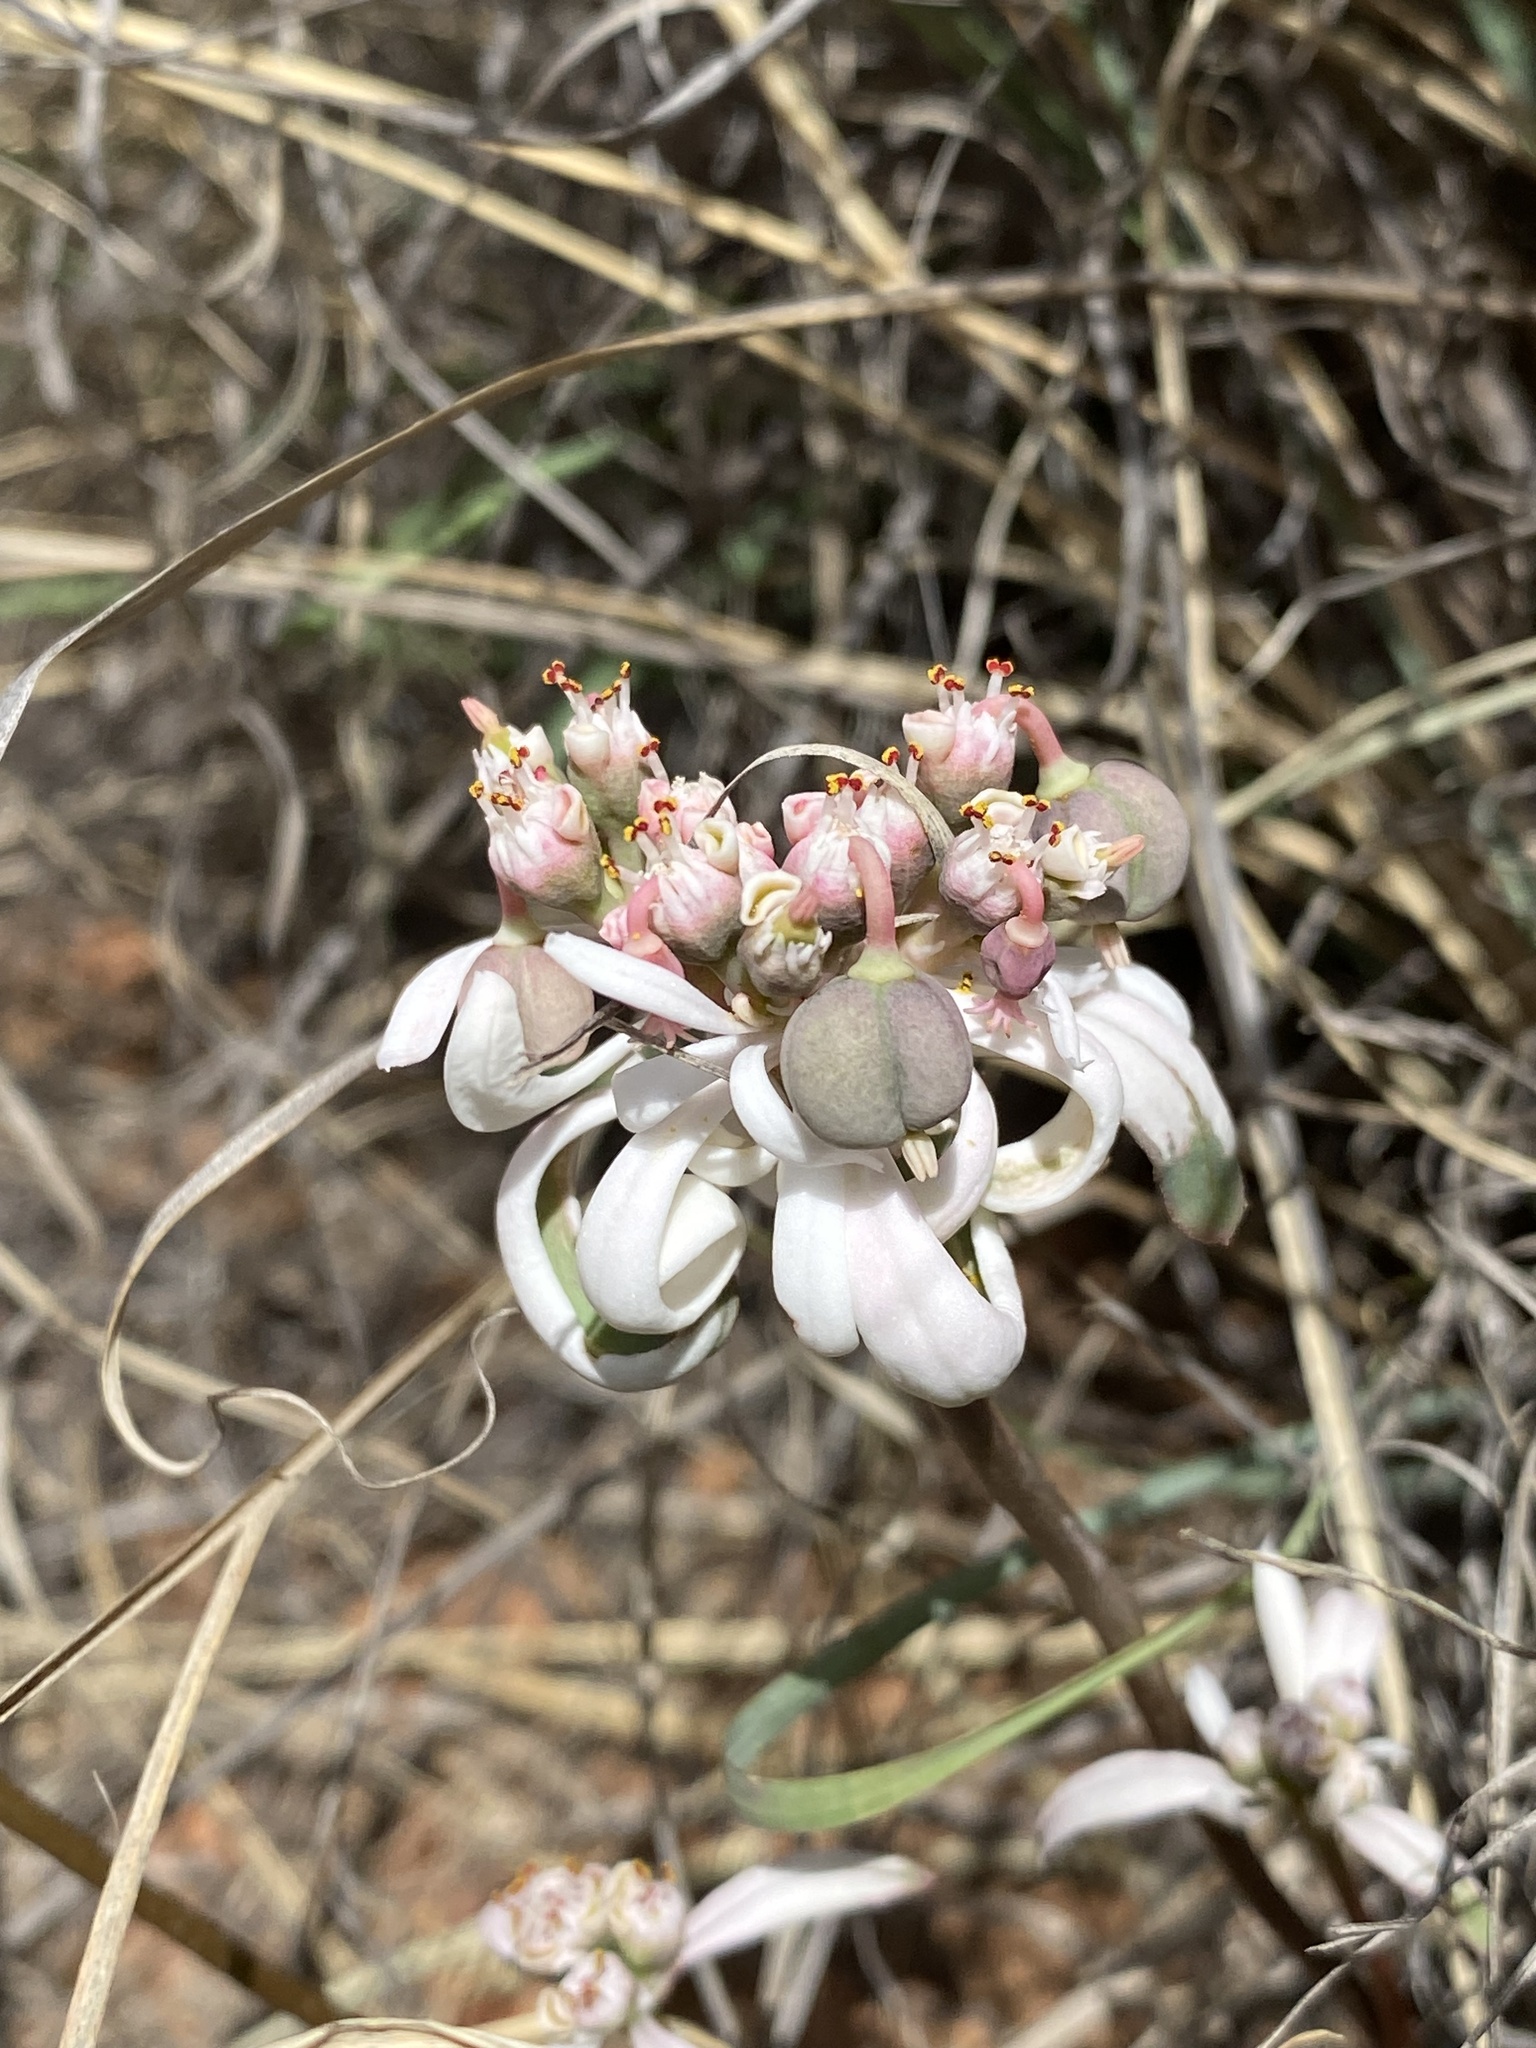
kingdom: Plantae
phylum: Tracheophyta
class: Magnoliopsida
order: Malpighiales
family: Euphorbiaceae
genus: Euphorbia
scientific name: Euphorbia radians
